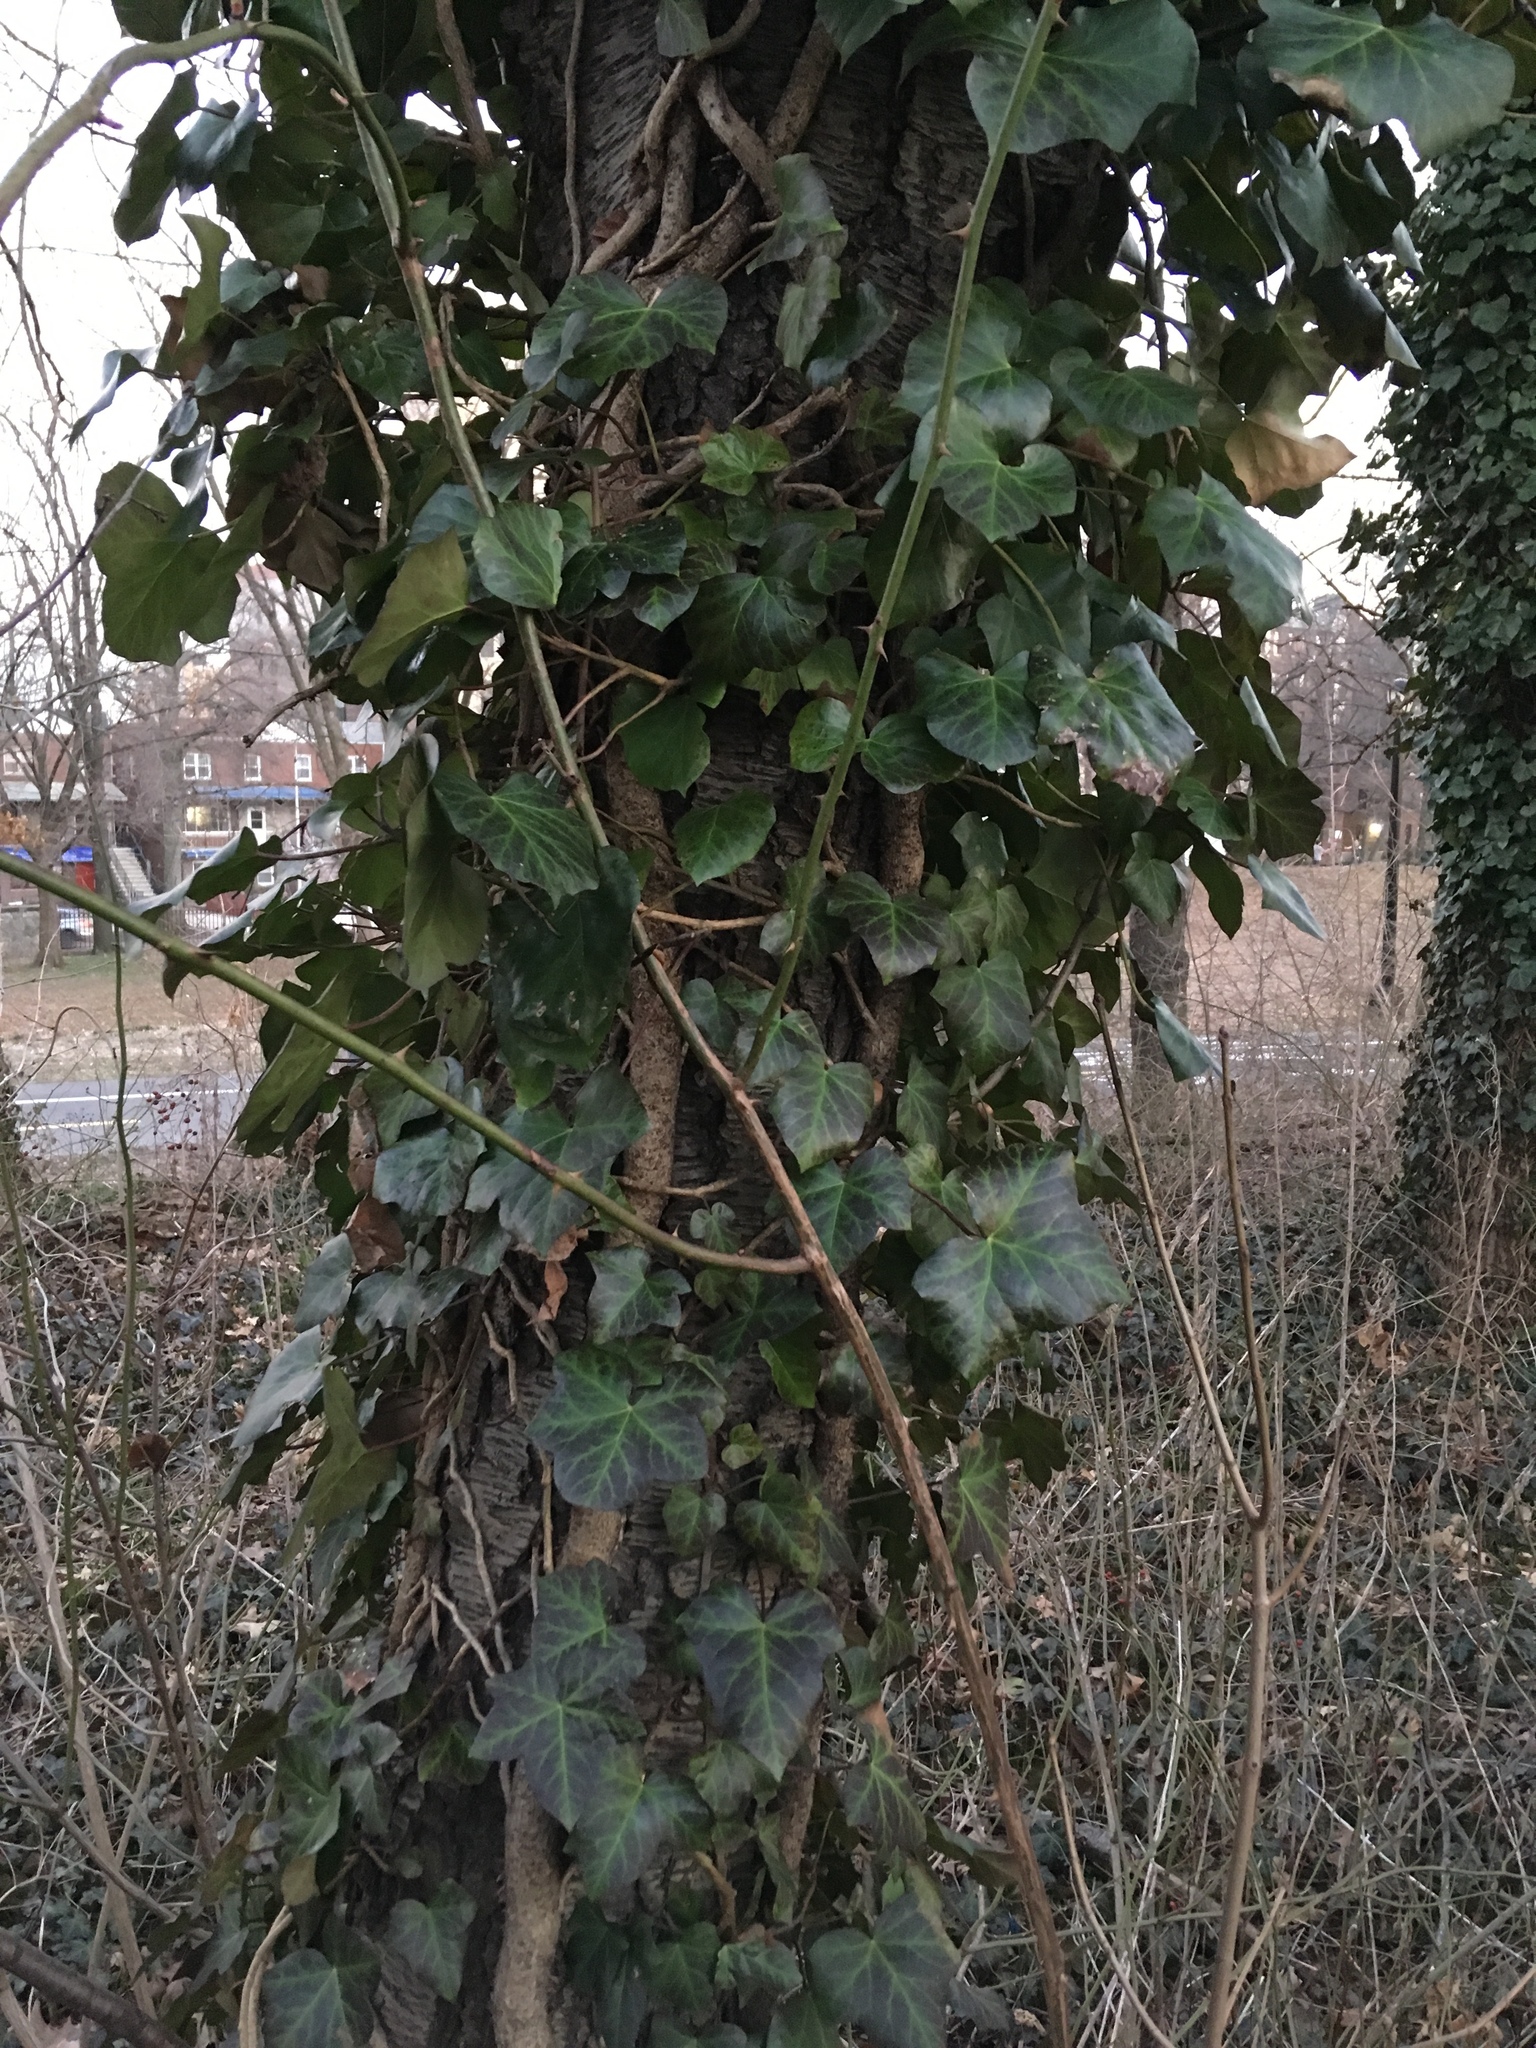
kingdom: Plantae
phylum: Tracheophyta
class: Magnoliopsida
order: Apiales
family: Araliaceae
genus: Hedera
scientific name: Hedera helix
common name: Ivy
